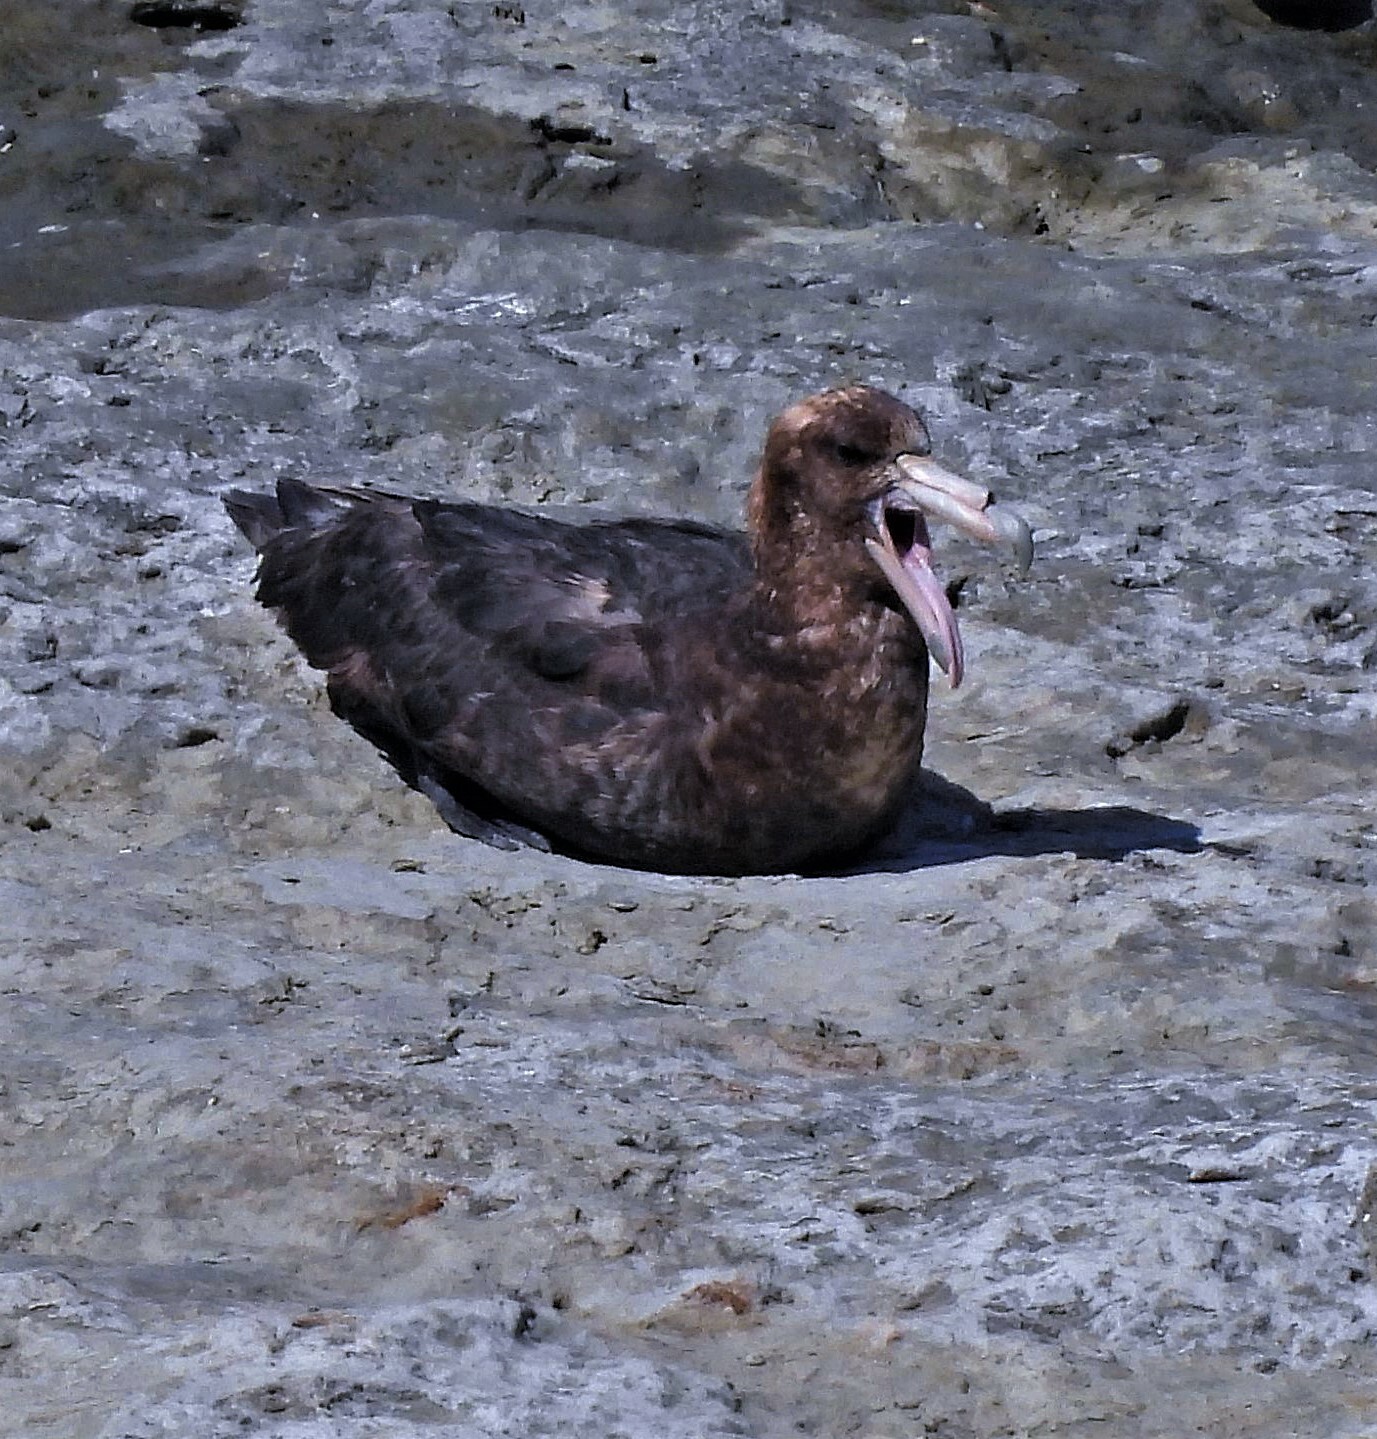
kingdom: Animalia
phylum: Chordata
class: Aves
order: Procellariiformes
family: Procellariidae
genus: Macronectes
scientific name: Macronectes giganteus
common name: Southern giant petrel
